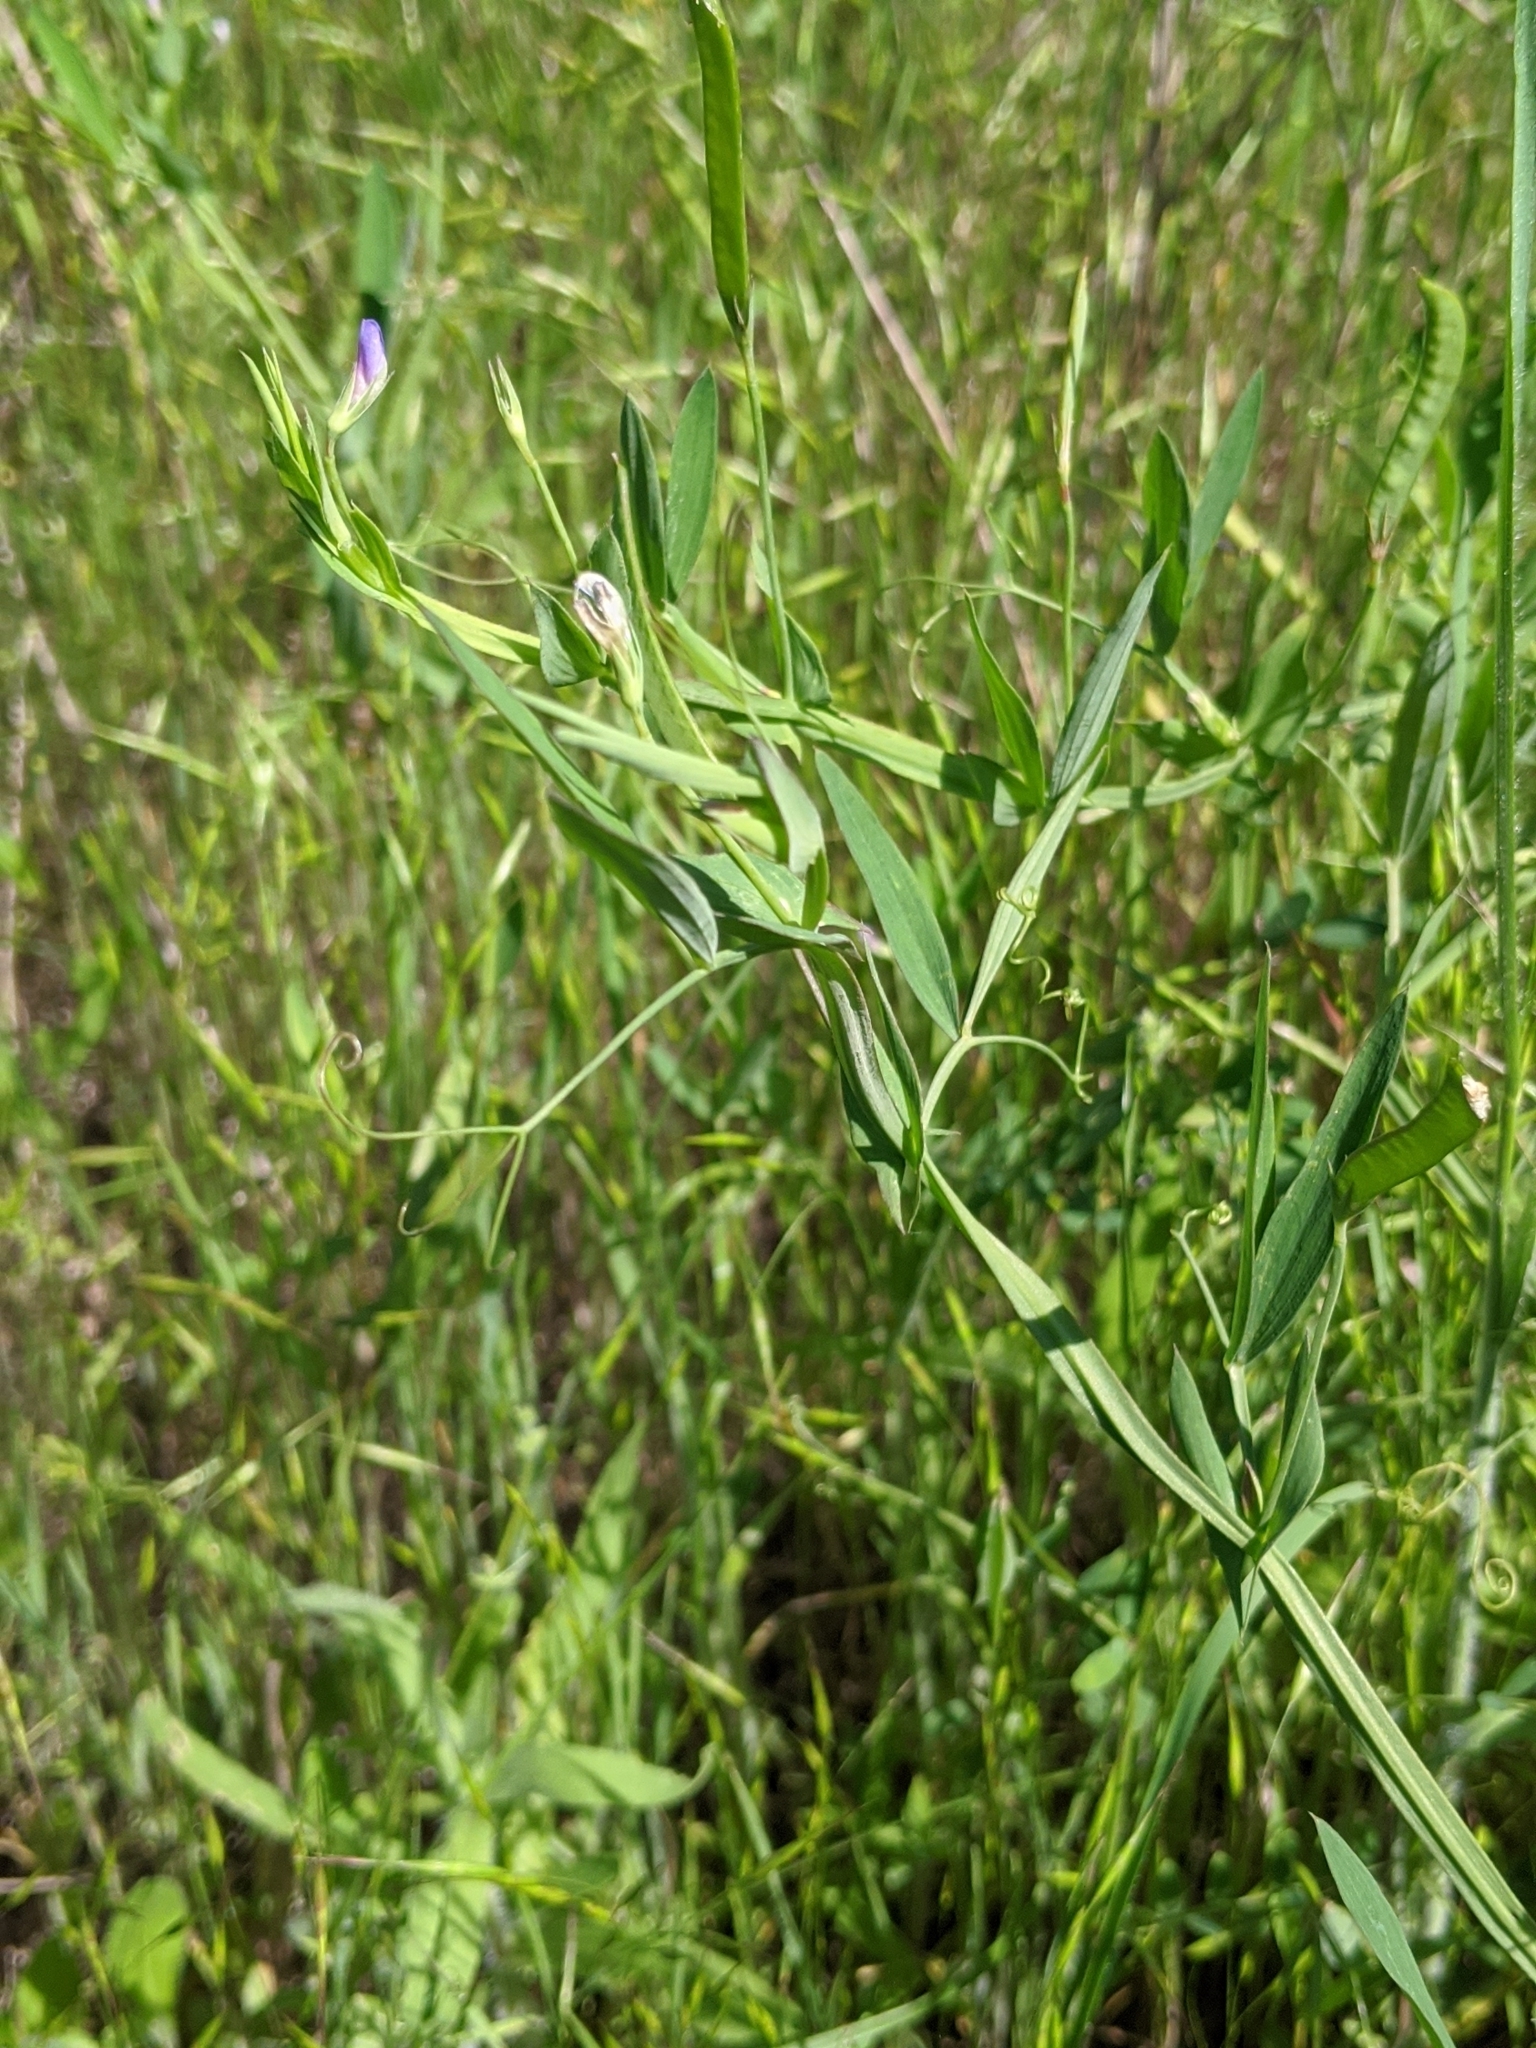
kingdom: Plantae
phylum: Tracheophyta
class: Magnoliopsida
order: Fabales
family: Fabaceae
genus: Lathyrus
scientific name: Lathyrus pusillus
